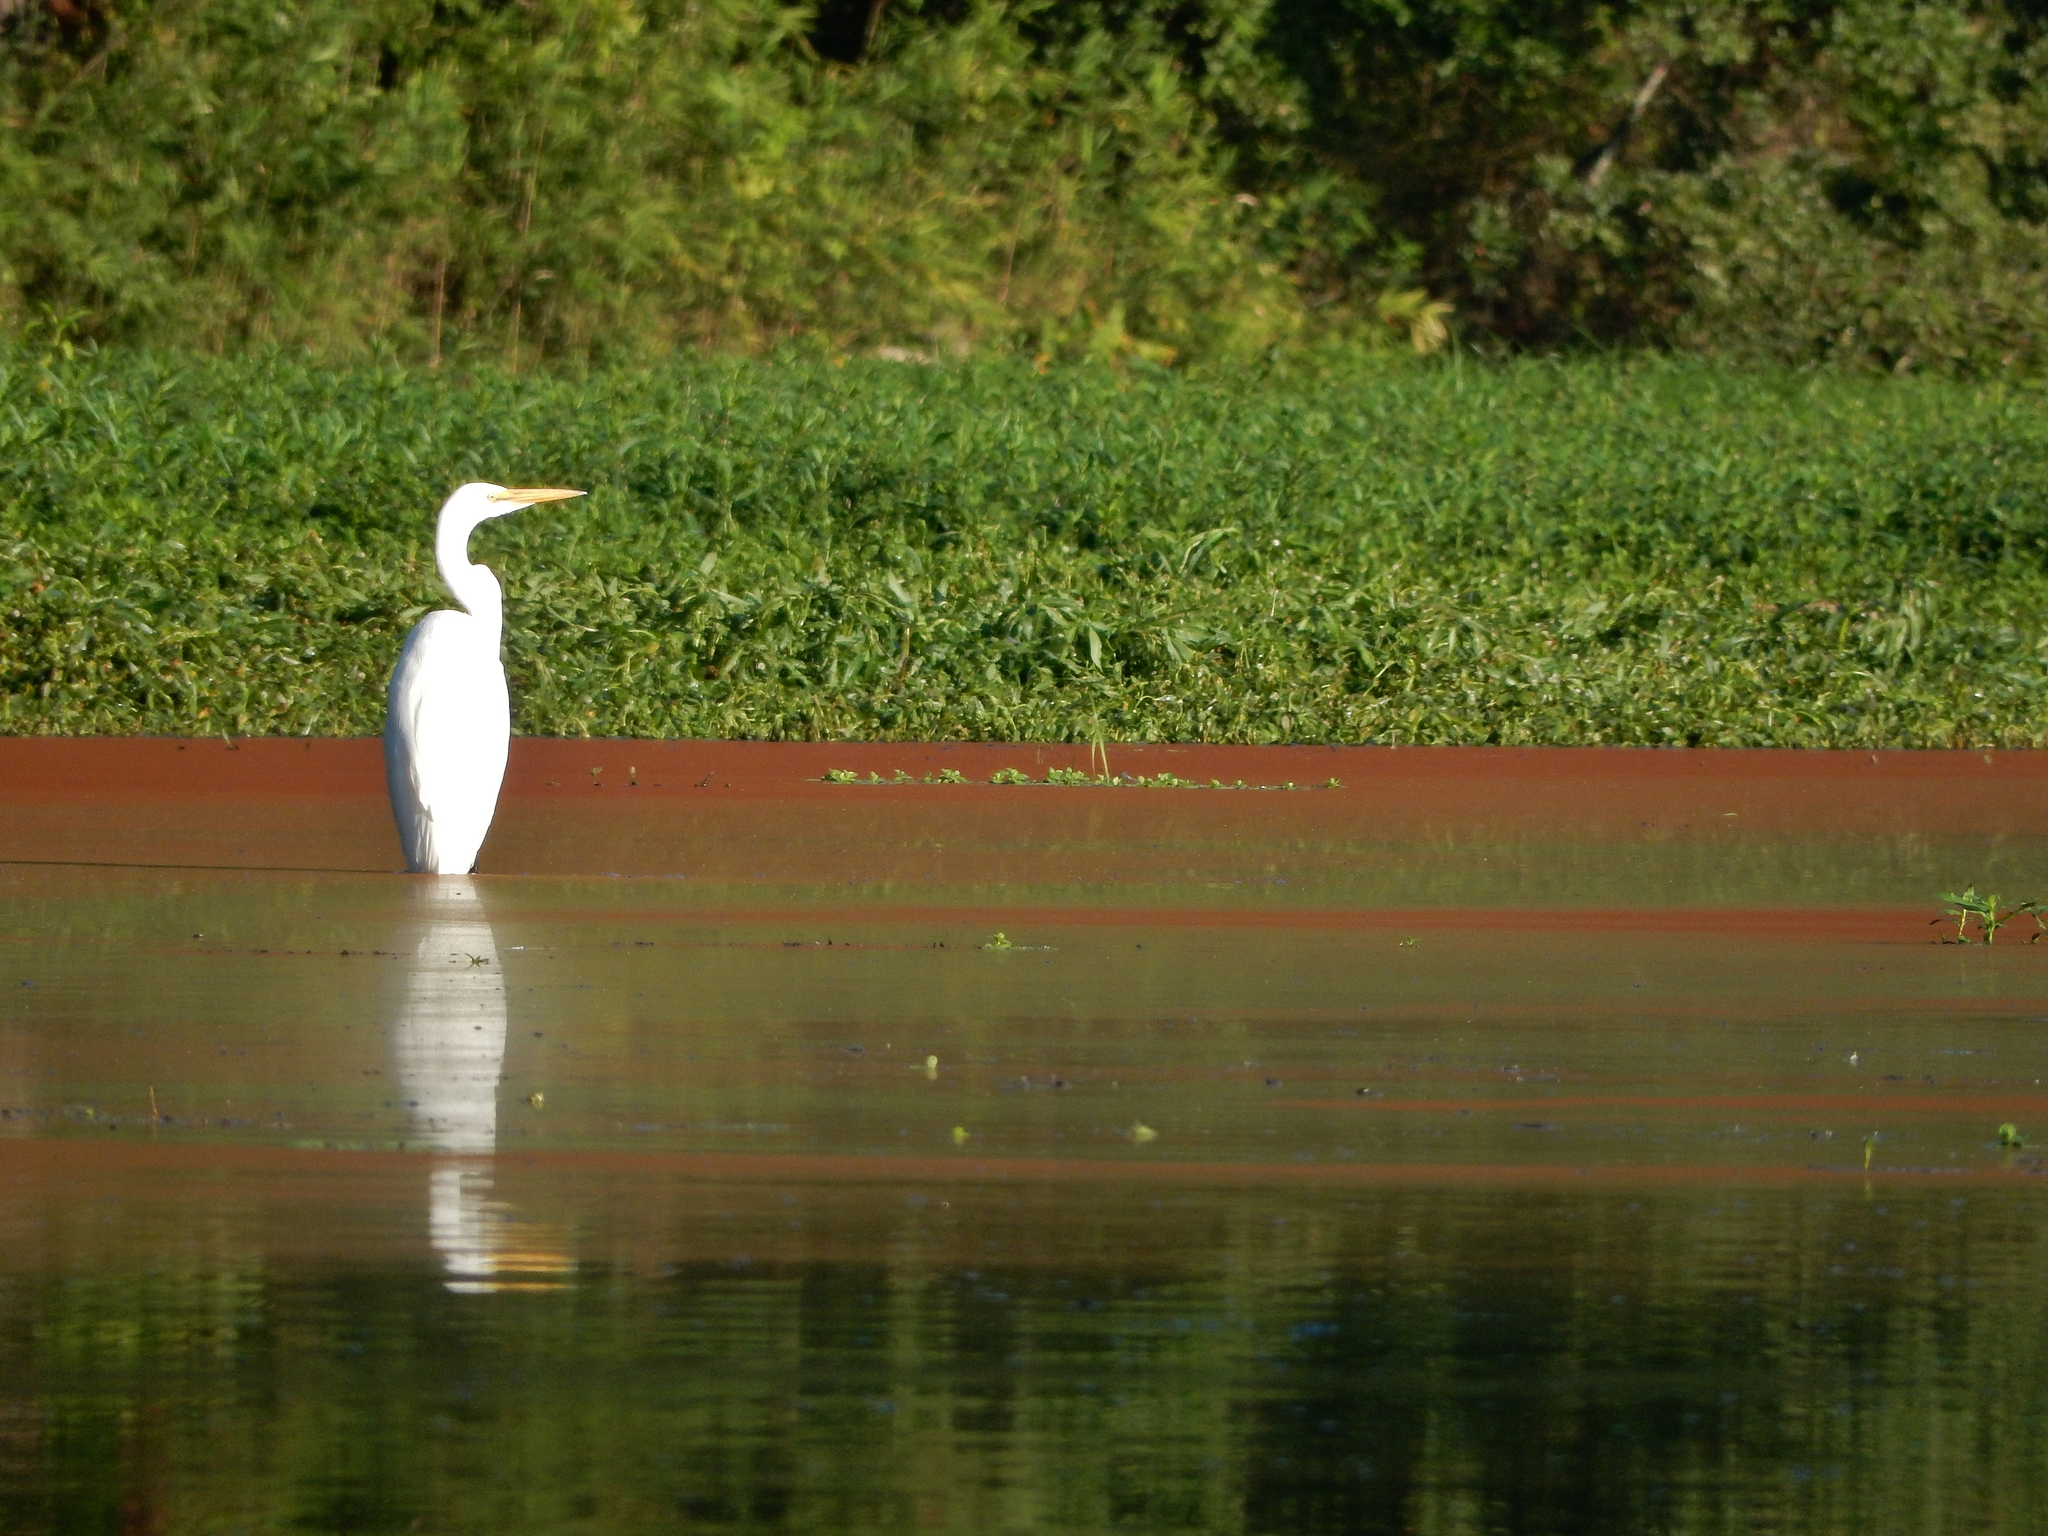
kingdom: Animalia
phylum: Chordata
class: Aves
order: Pelecaniformes
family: Ardeidae
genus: Ardea
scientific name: Ardea alba
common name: Great egret
